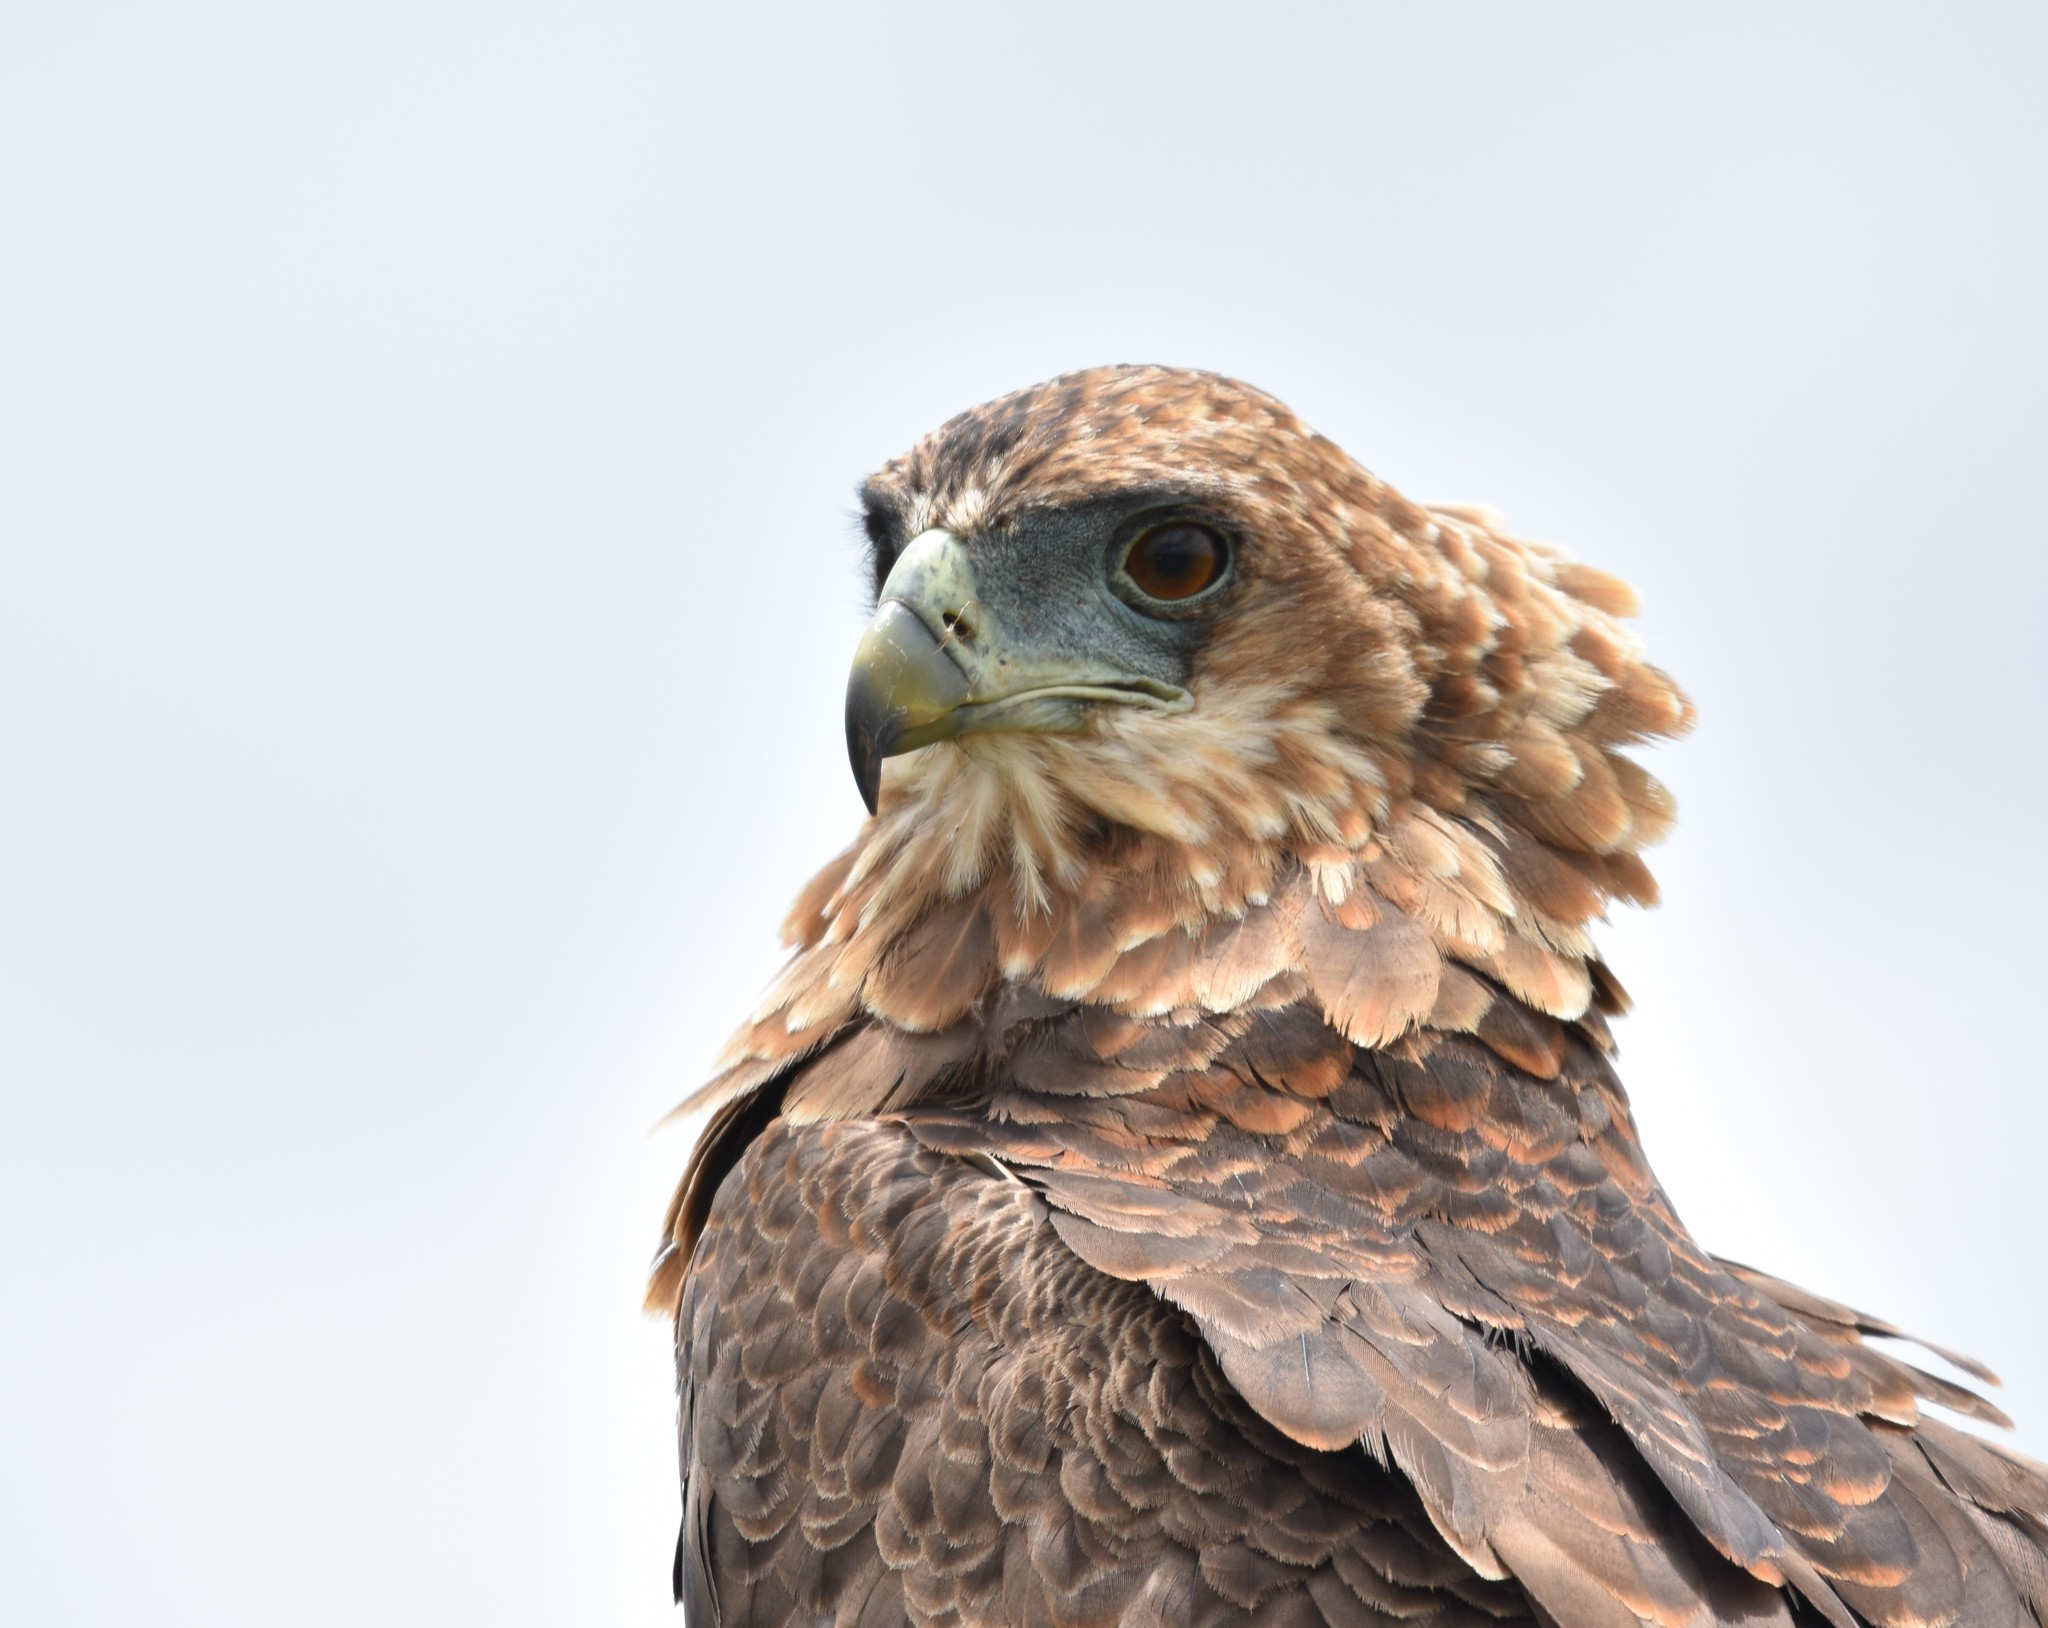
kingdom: Animalia
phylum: Chordata
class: Aves
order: Accipitriformes
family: Accipitridae
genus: Terathopius
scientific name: Terathopius ecaudatus
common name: Bateleur
